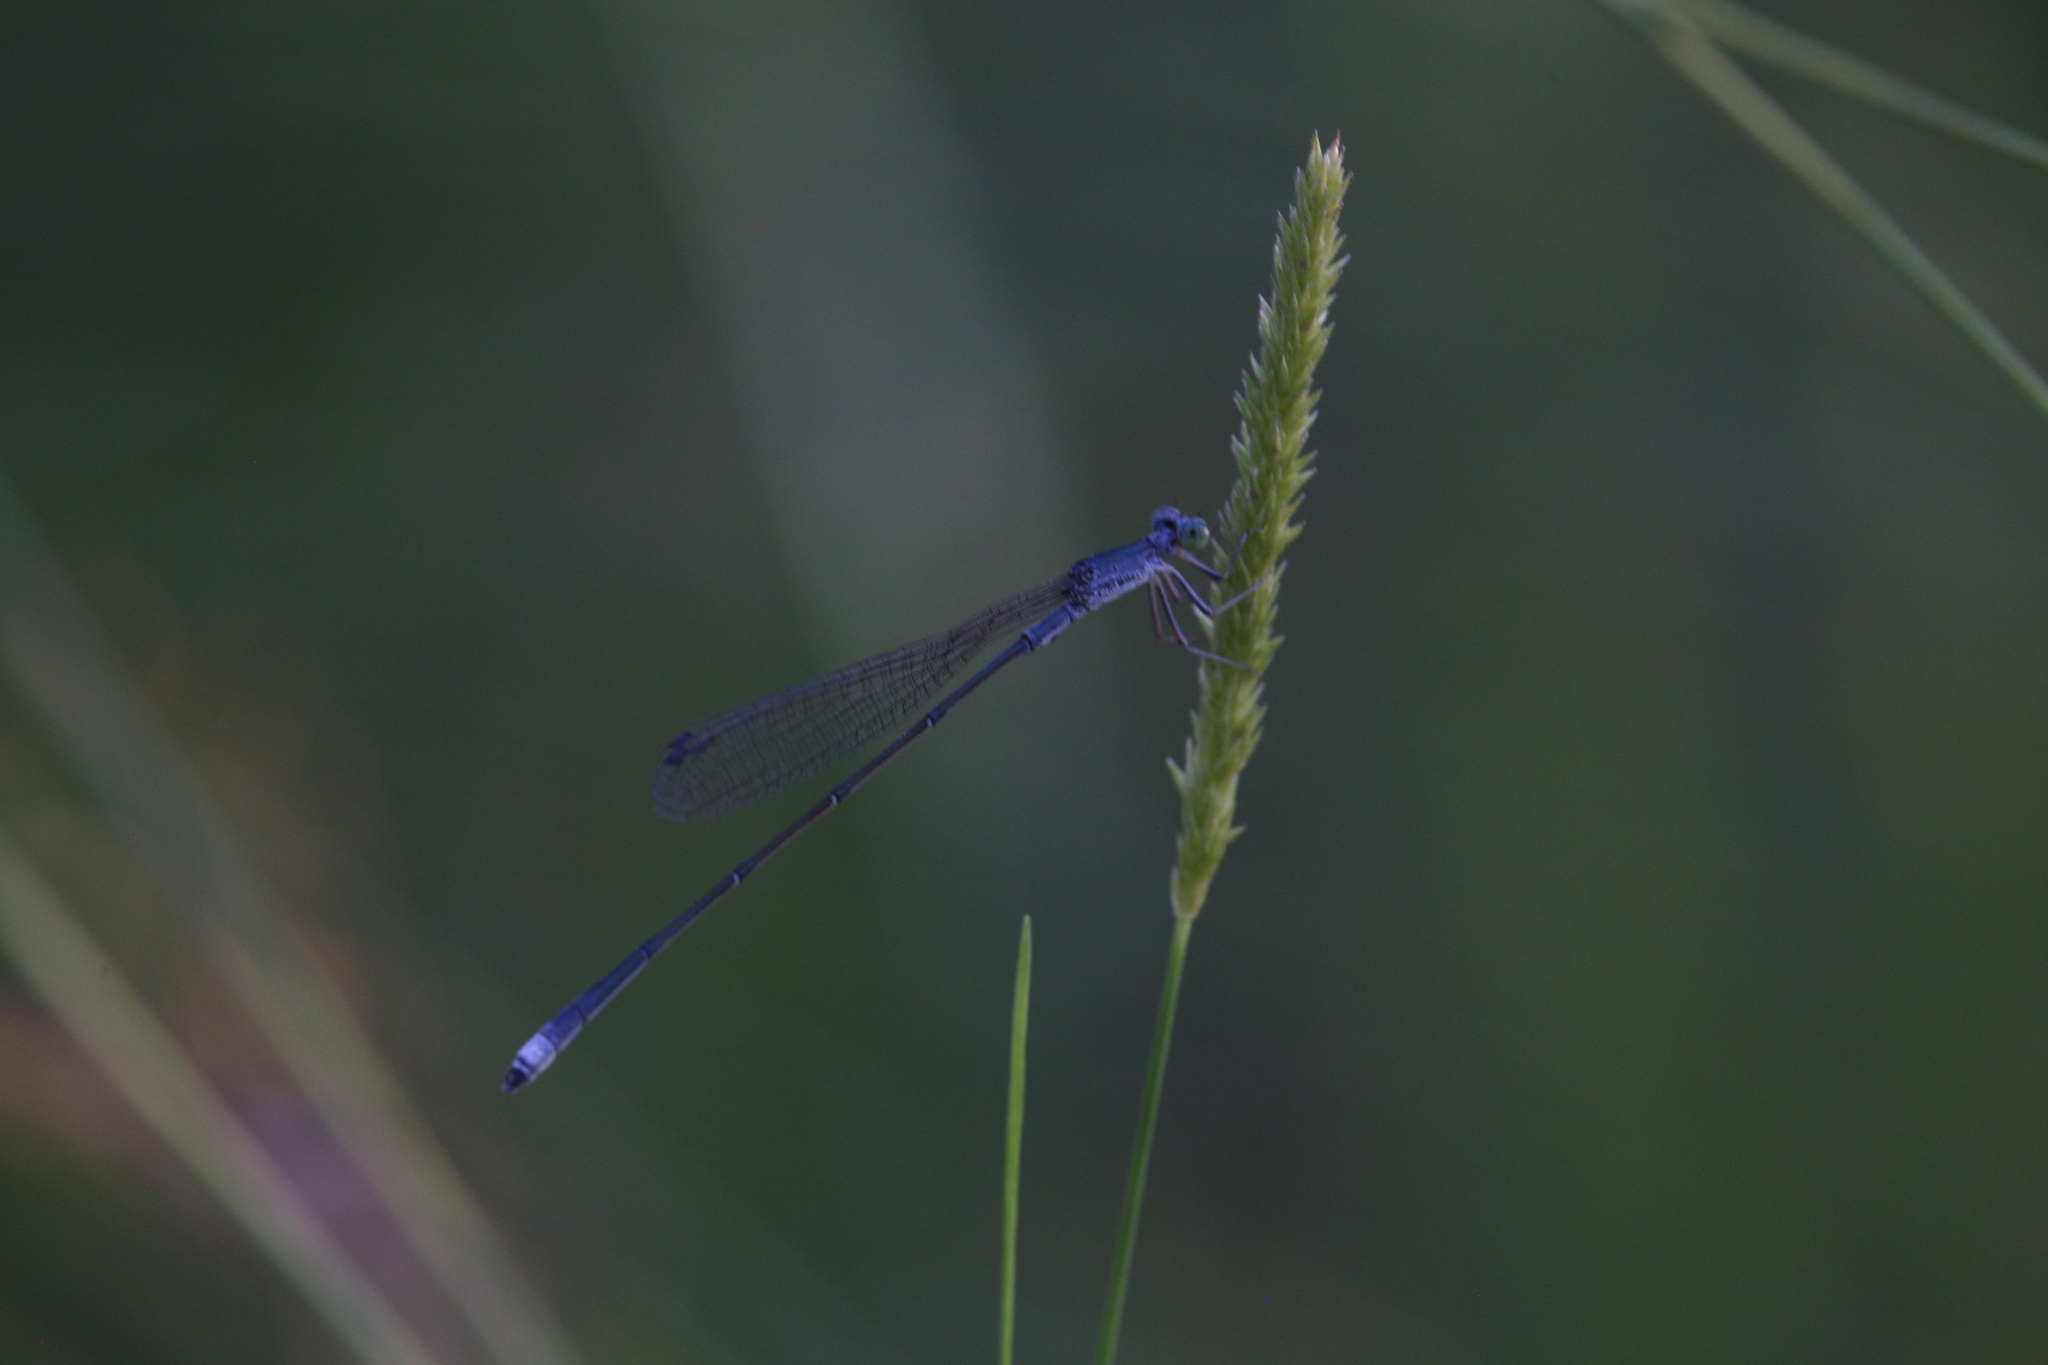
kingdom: Animalia
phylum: Arthropoda
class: Insecta
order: Odonata
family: Isostictidae
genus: Rhadinosticta
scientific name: Rhadinosticta banksi
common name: Northern wiretail
